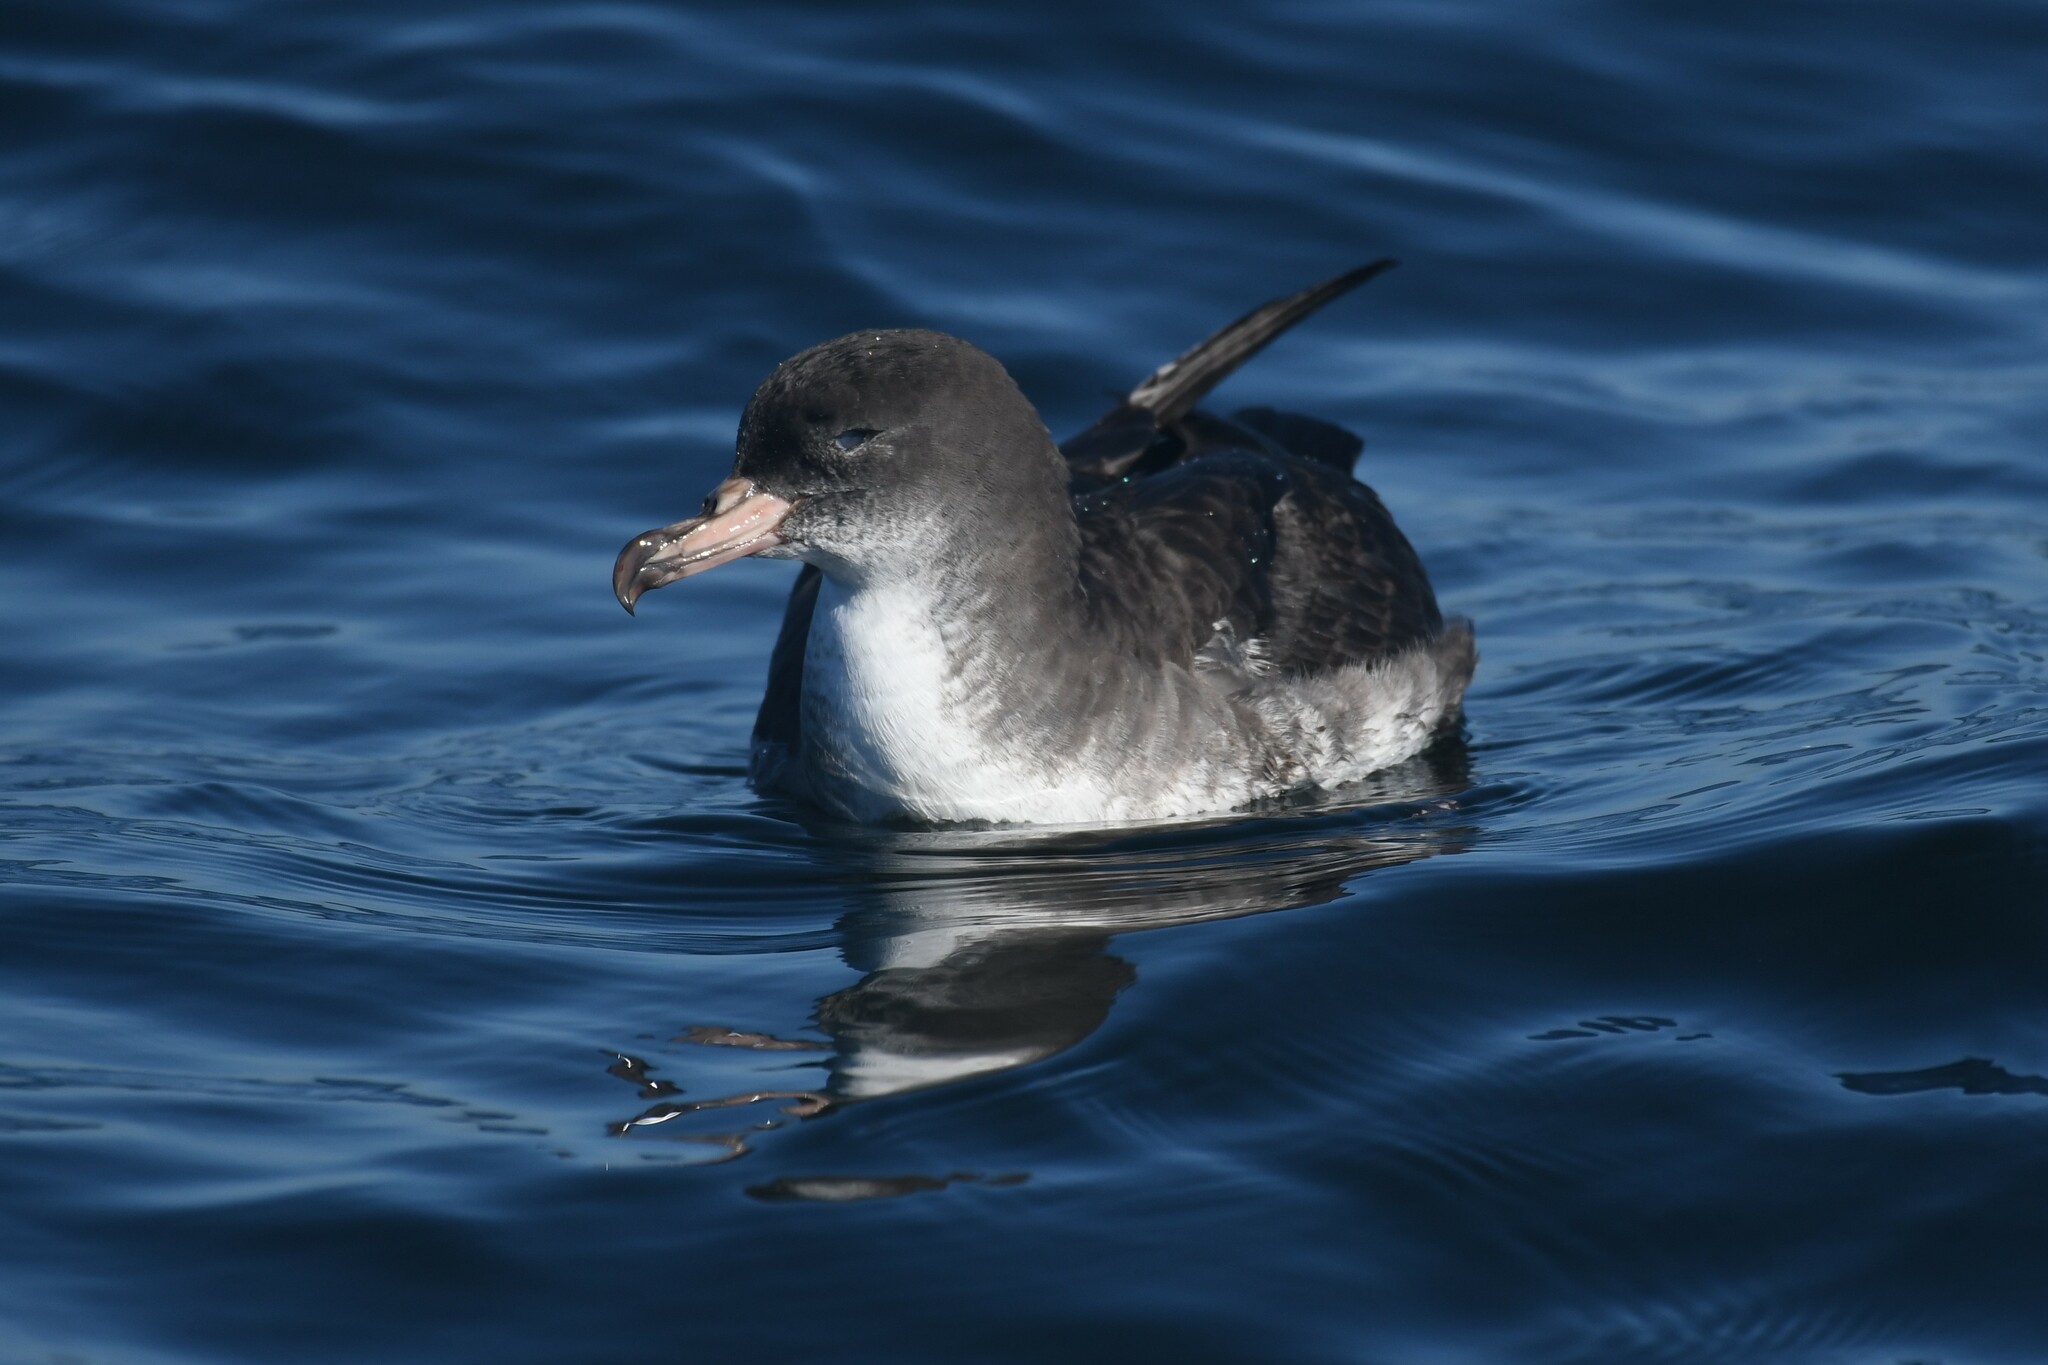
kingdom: Animalia
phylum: Chordata
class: Aves
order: Procellariiformes
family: Procellariidae
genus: Puffinus
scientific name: Puffinus creatopus
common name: Pink-footed shearwater
